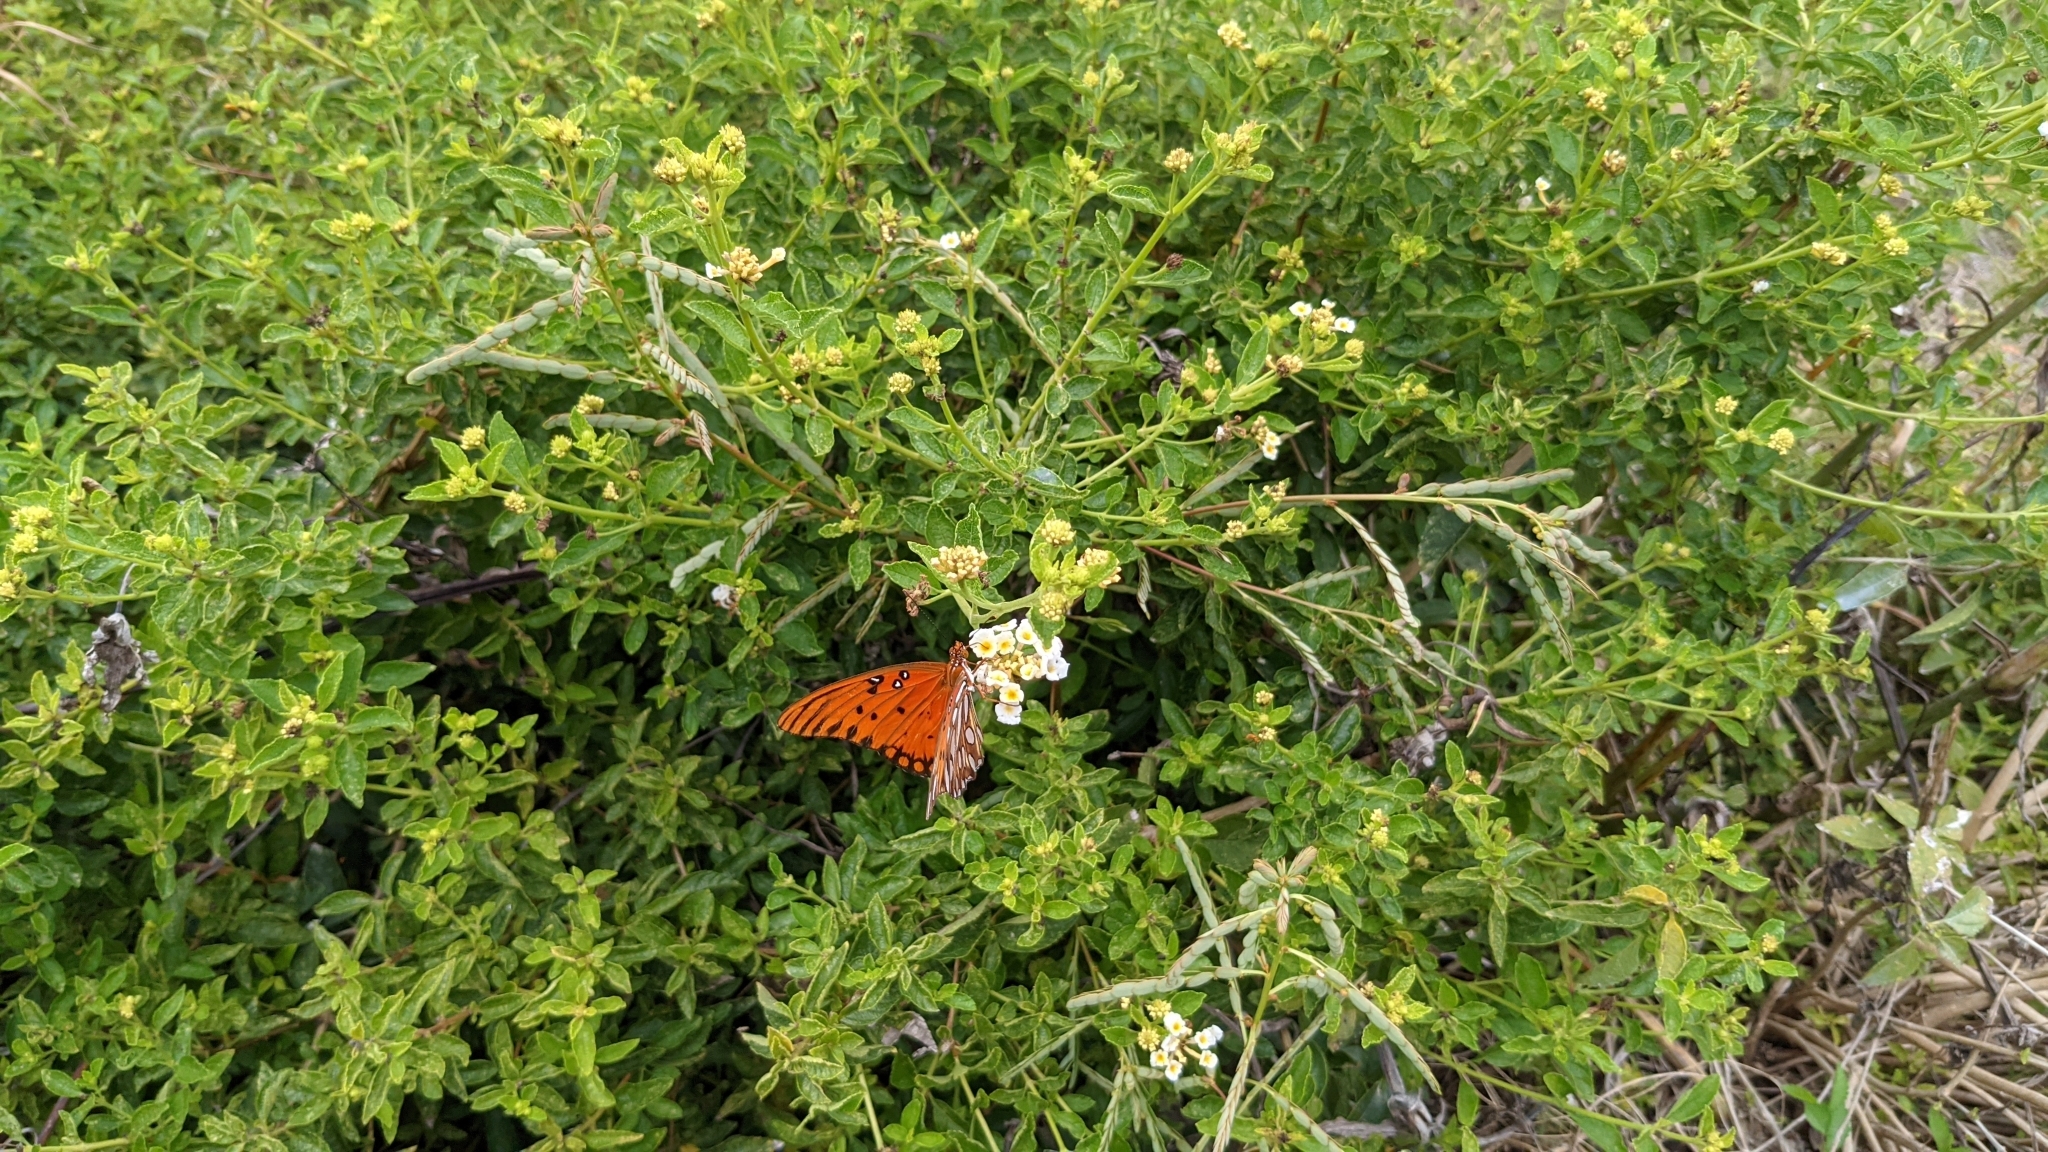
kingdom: Animalia
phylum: Arthropoda
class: Insecta
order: Lepidoptera
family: Nymphalidae
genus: Dione
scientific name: Dione vanillae
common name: Gulf fritillary
